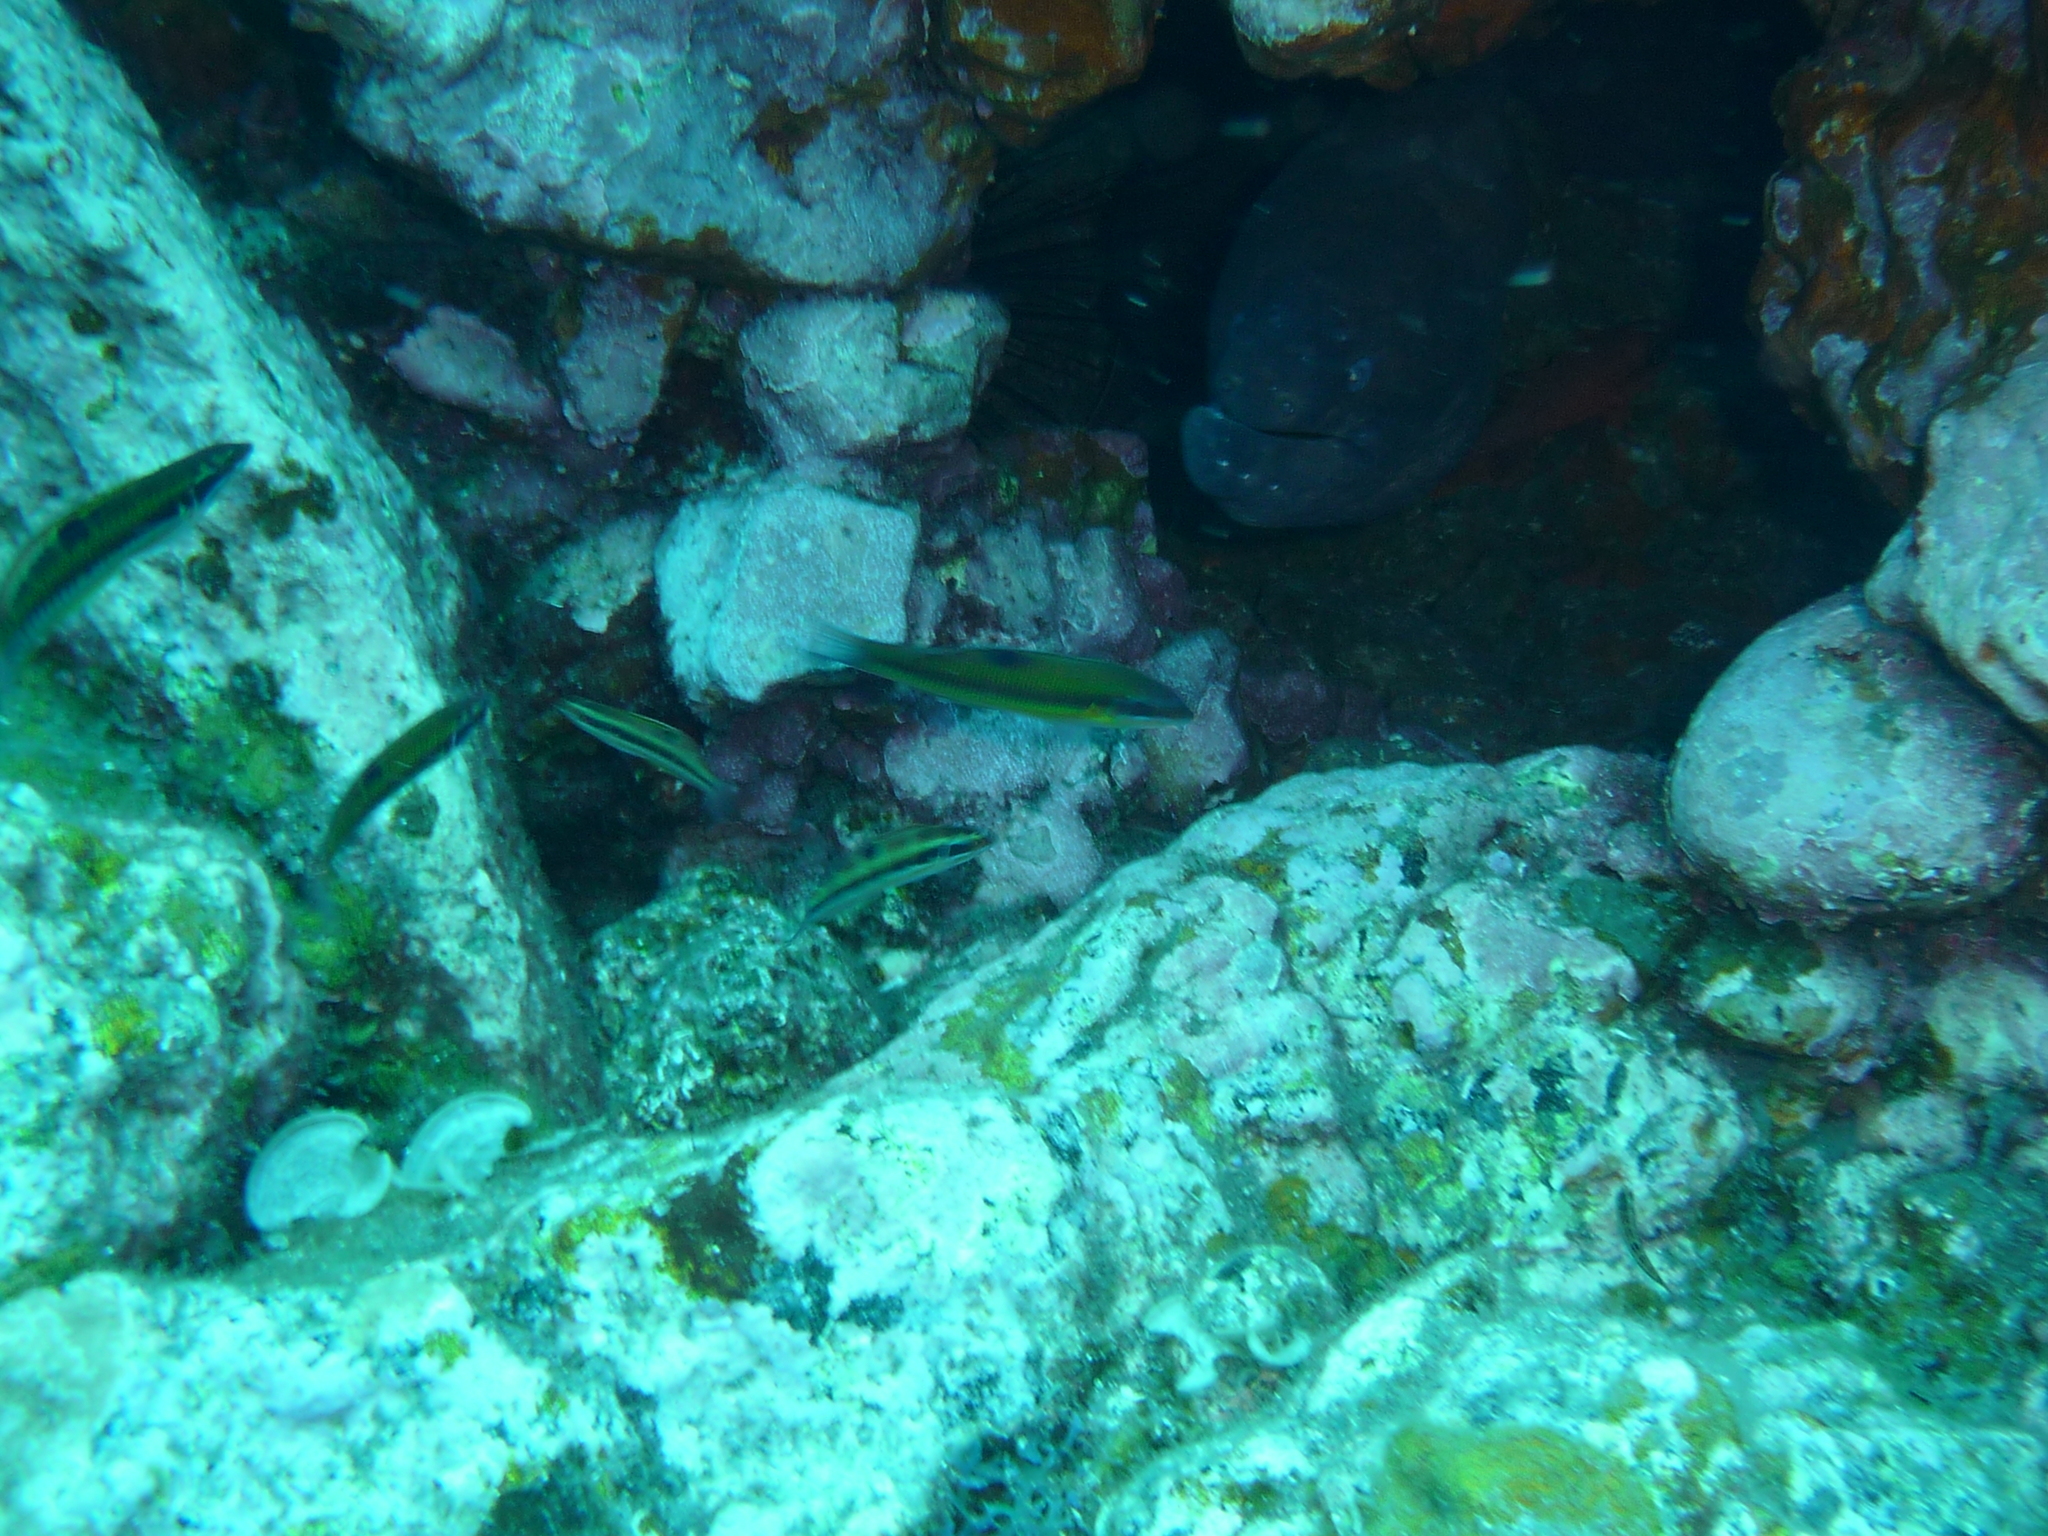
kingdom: Animalia
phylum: Chordata
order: Perciformes
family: Labridae
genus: Thalassoma
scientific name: Thalassoma pavo
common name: Ornate wrasse
